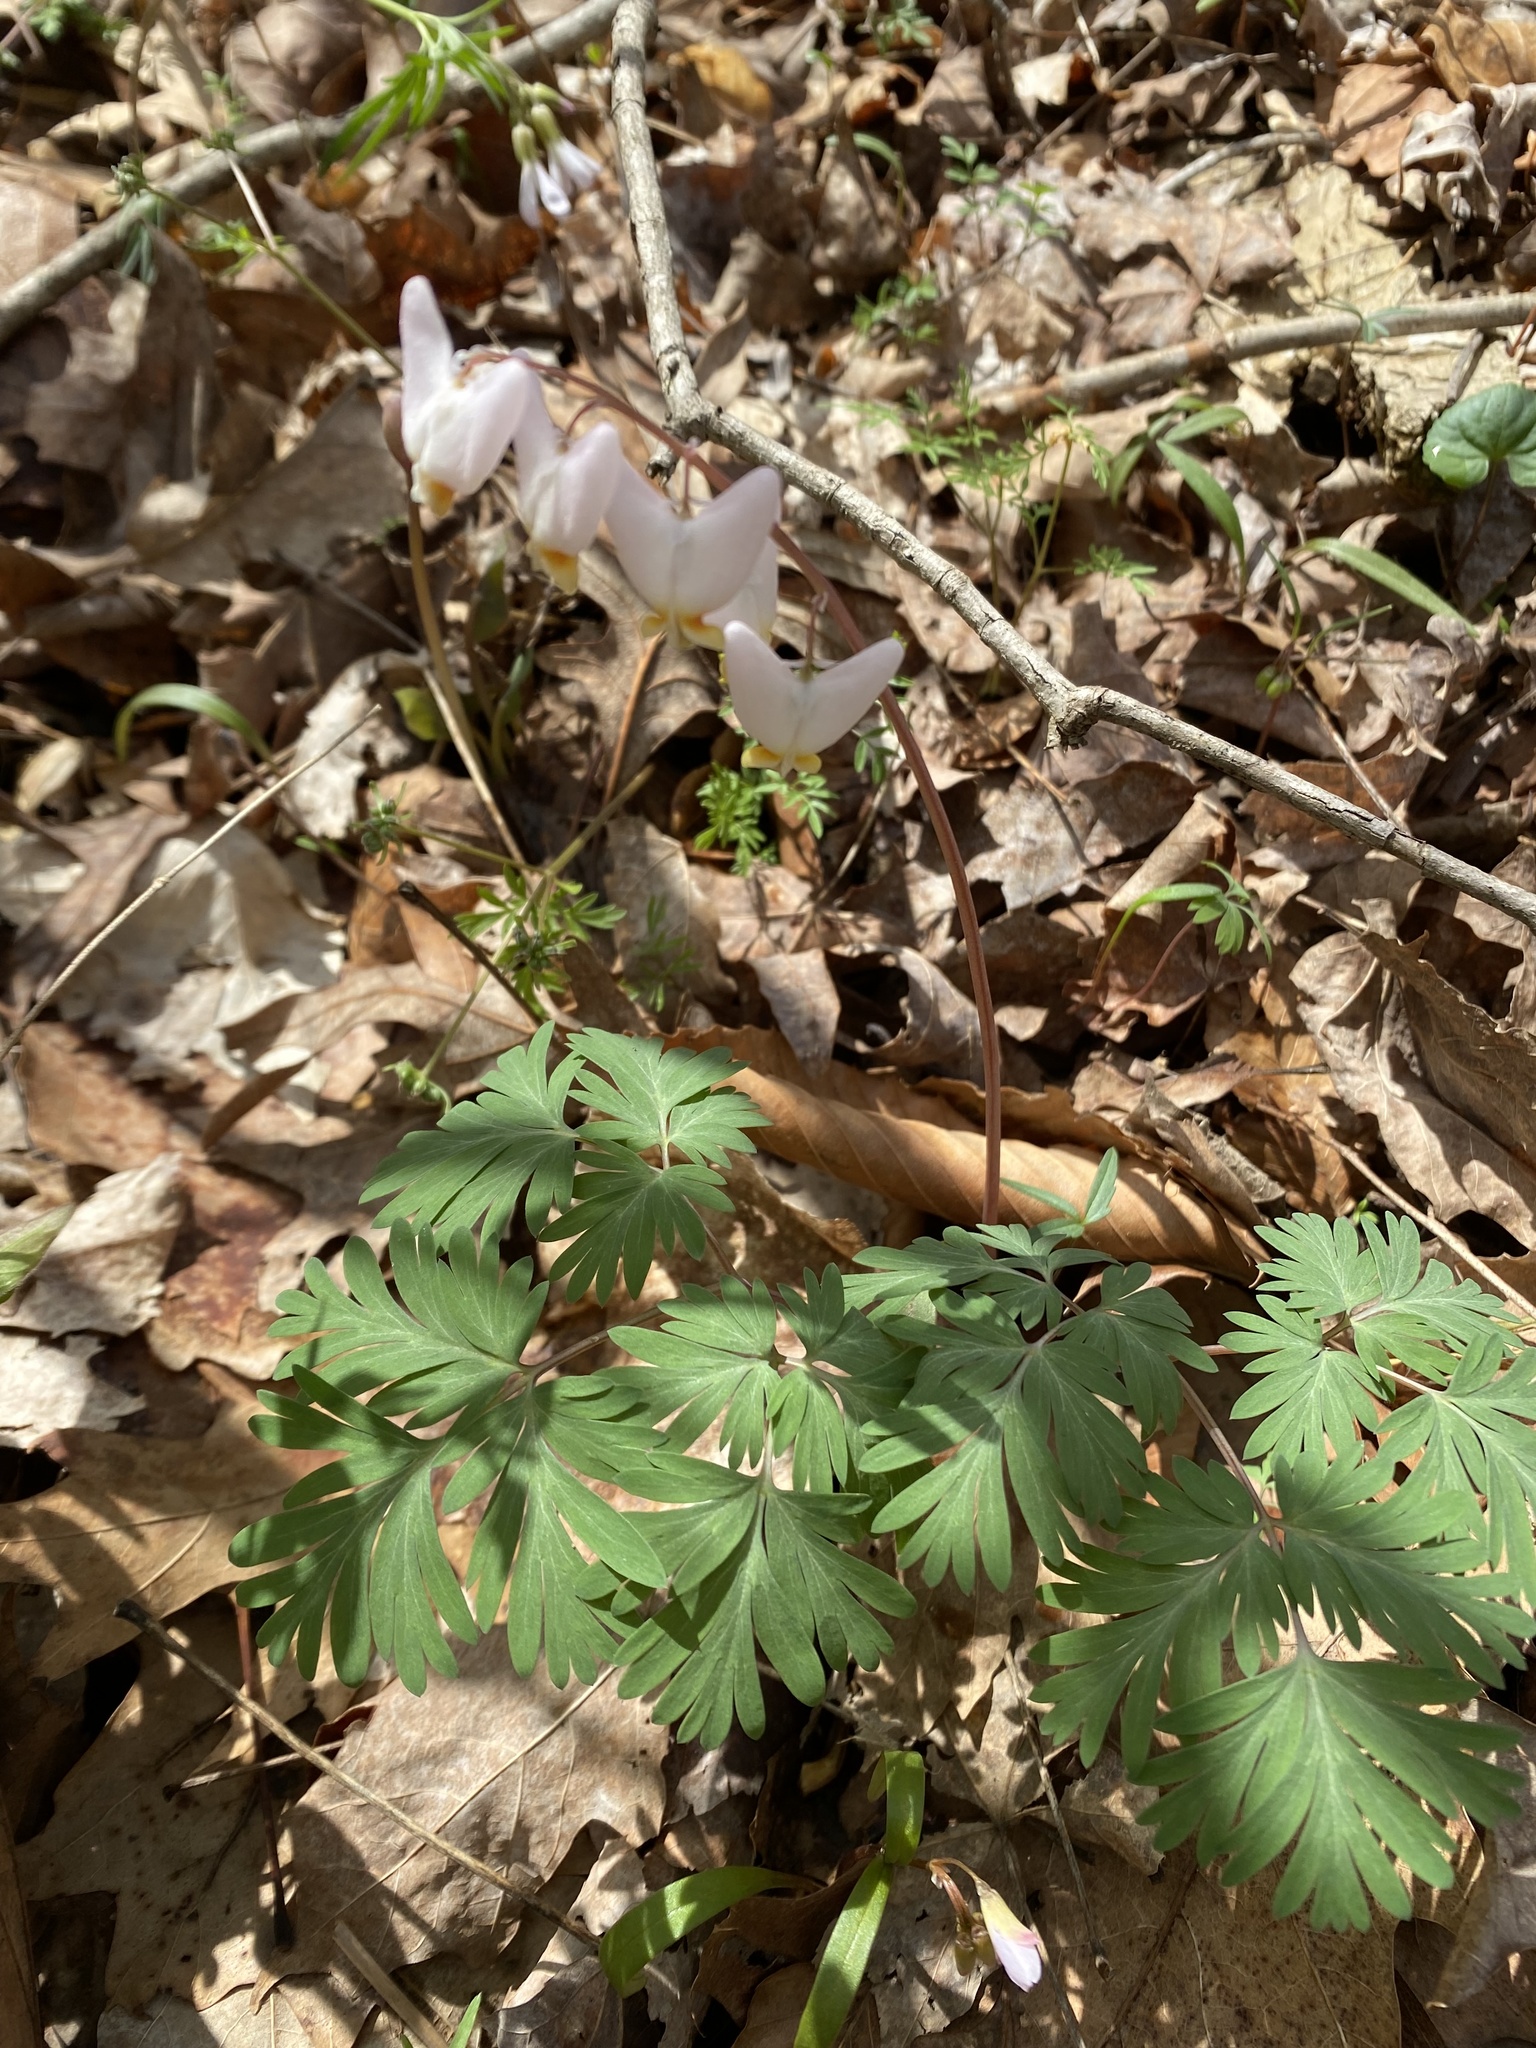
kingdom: Plantae
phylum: Tracheophyta
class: Magnoliopsida
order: Ranunculales
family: Papaveraceae
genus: Dicentra
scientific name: Dicentra cucullaria
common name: Dutchman's breeches
